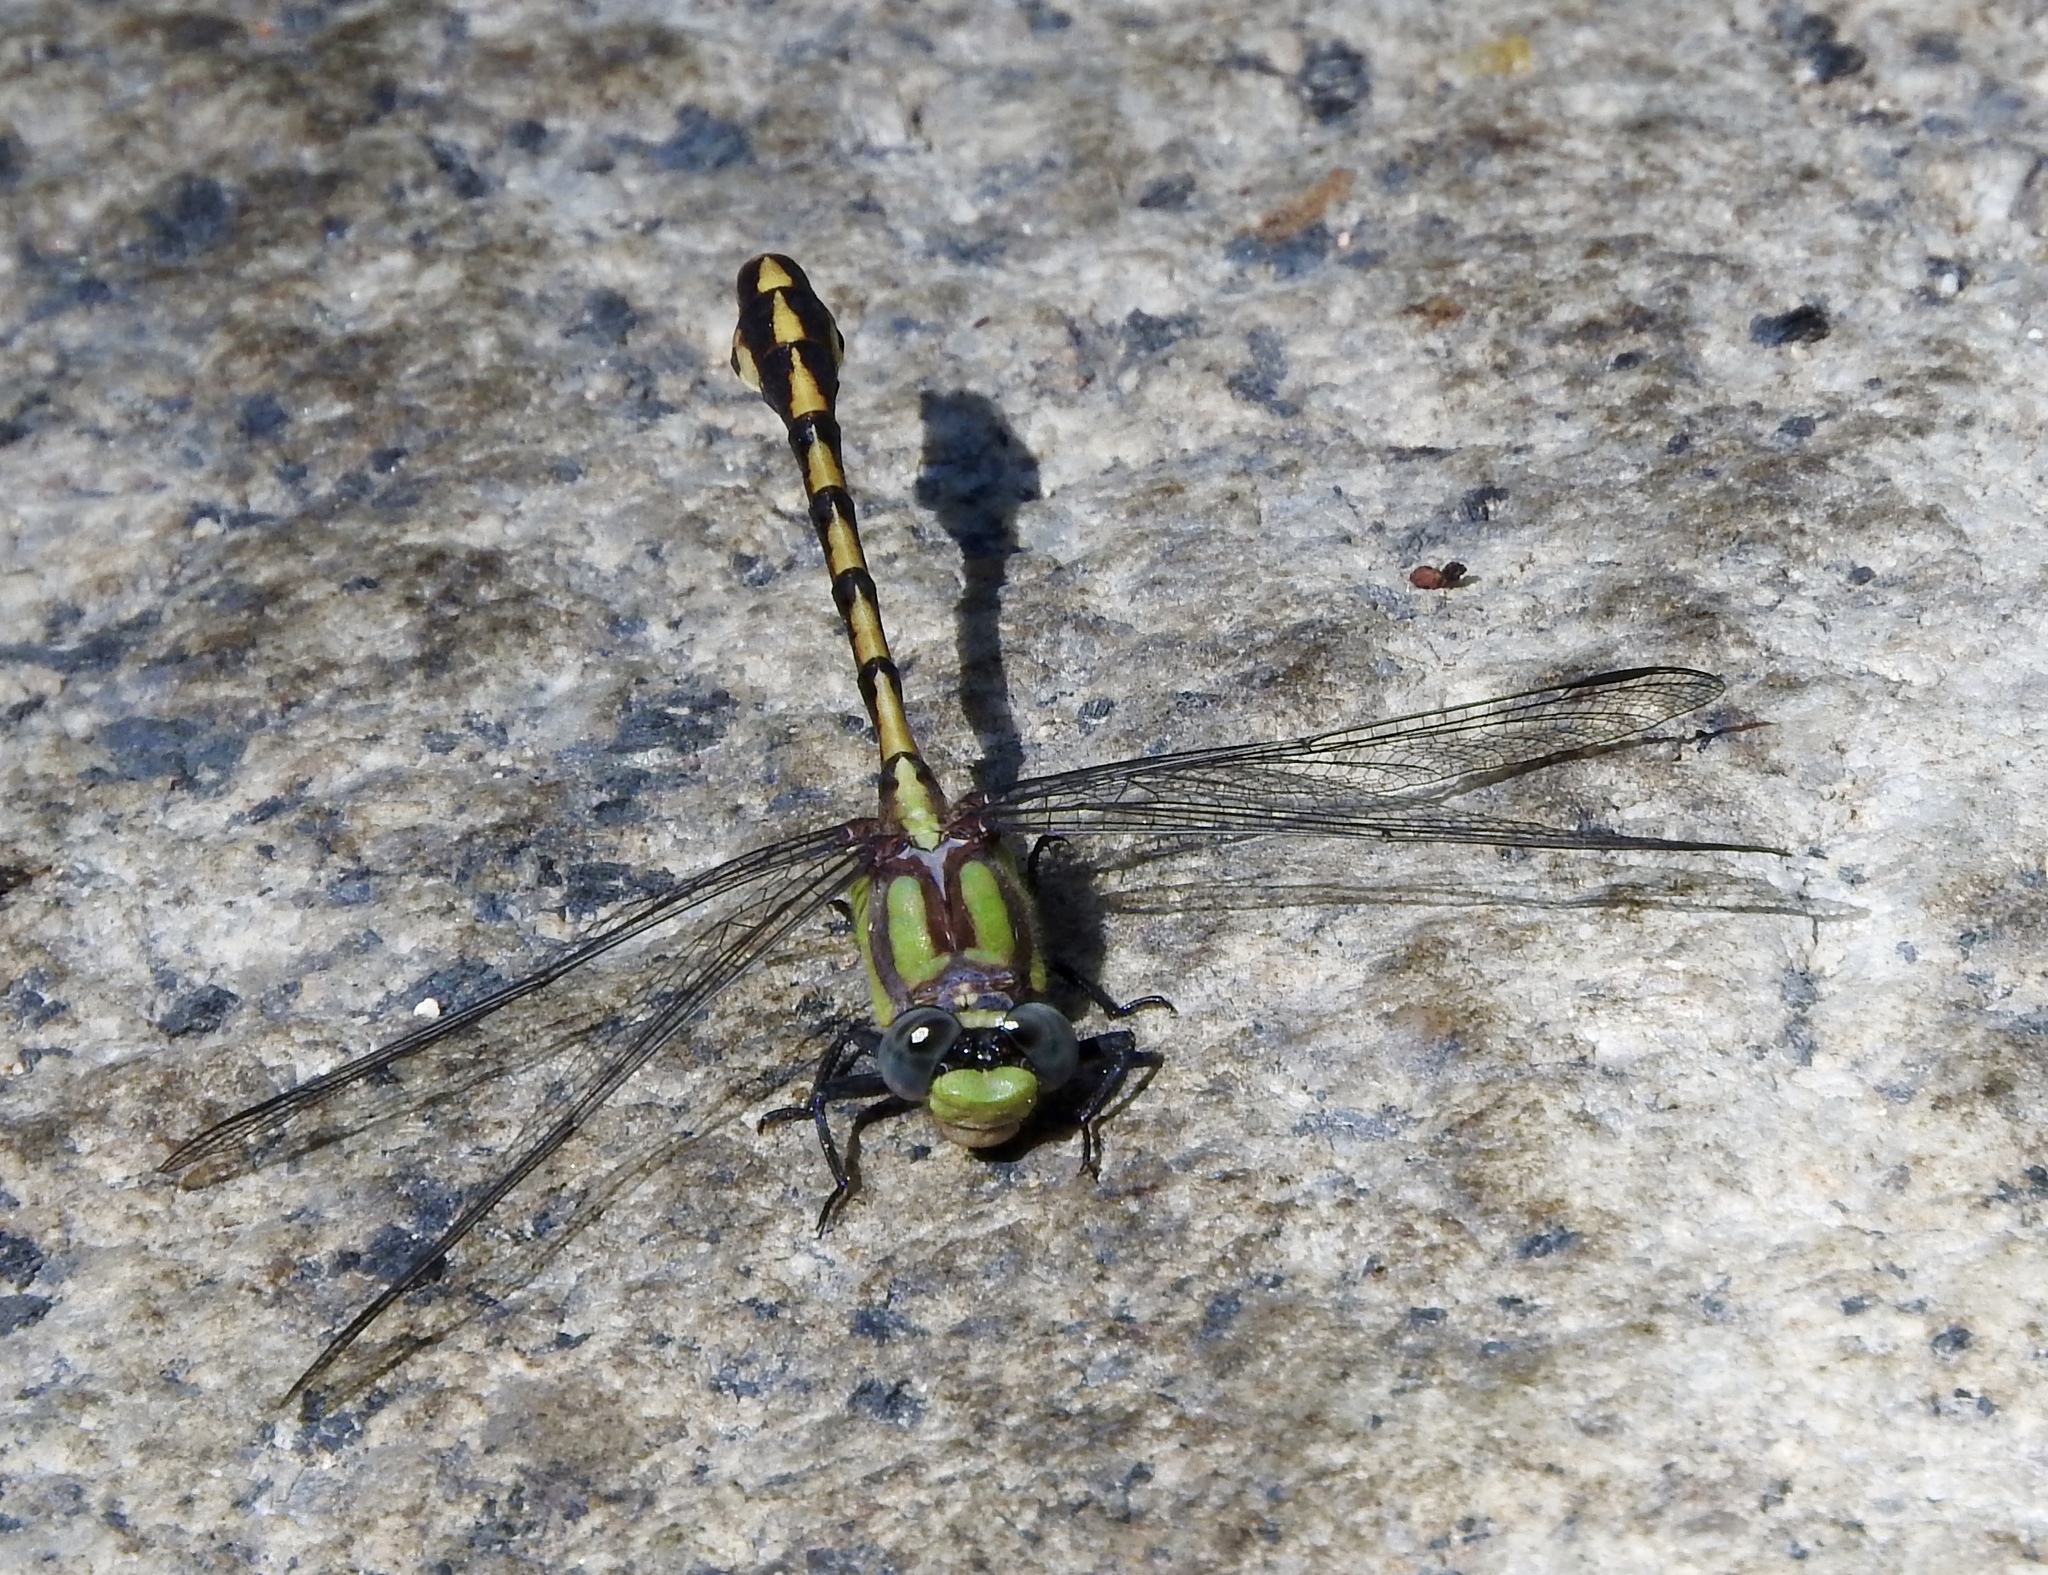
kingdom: Animalia
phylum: Arthropoda
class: Insecta
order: Odonata
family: Gomphidae
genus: Ophiogomphus
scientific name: Ophiogomphus bison
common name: Bison snaketail
